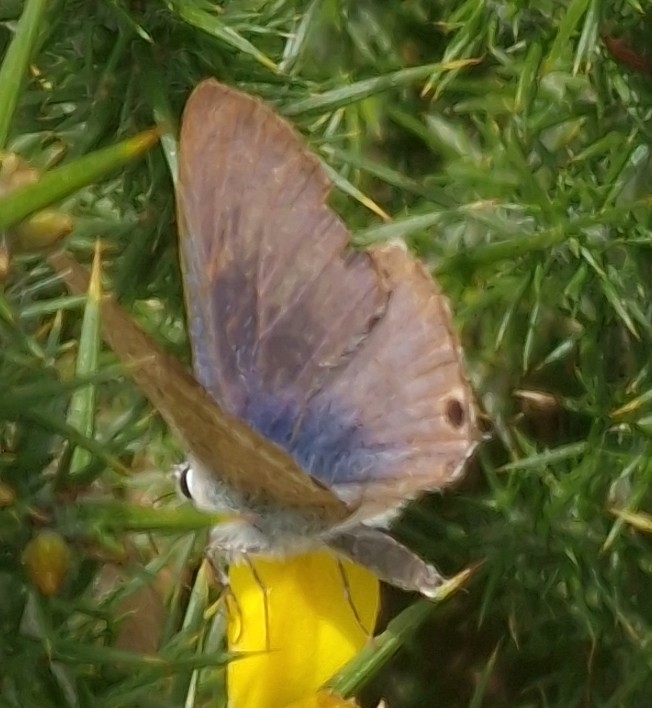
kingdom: Animalia
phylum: Arthropoda
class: Insecta
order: Lepidoptera
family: Lycaenidae
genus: Lampides
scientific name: Lampides boeticus
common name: Long-tailed blue
